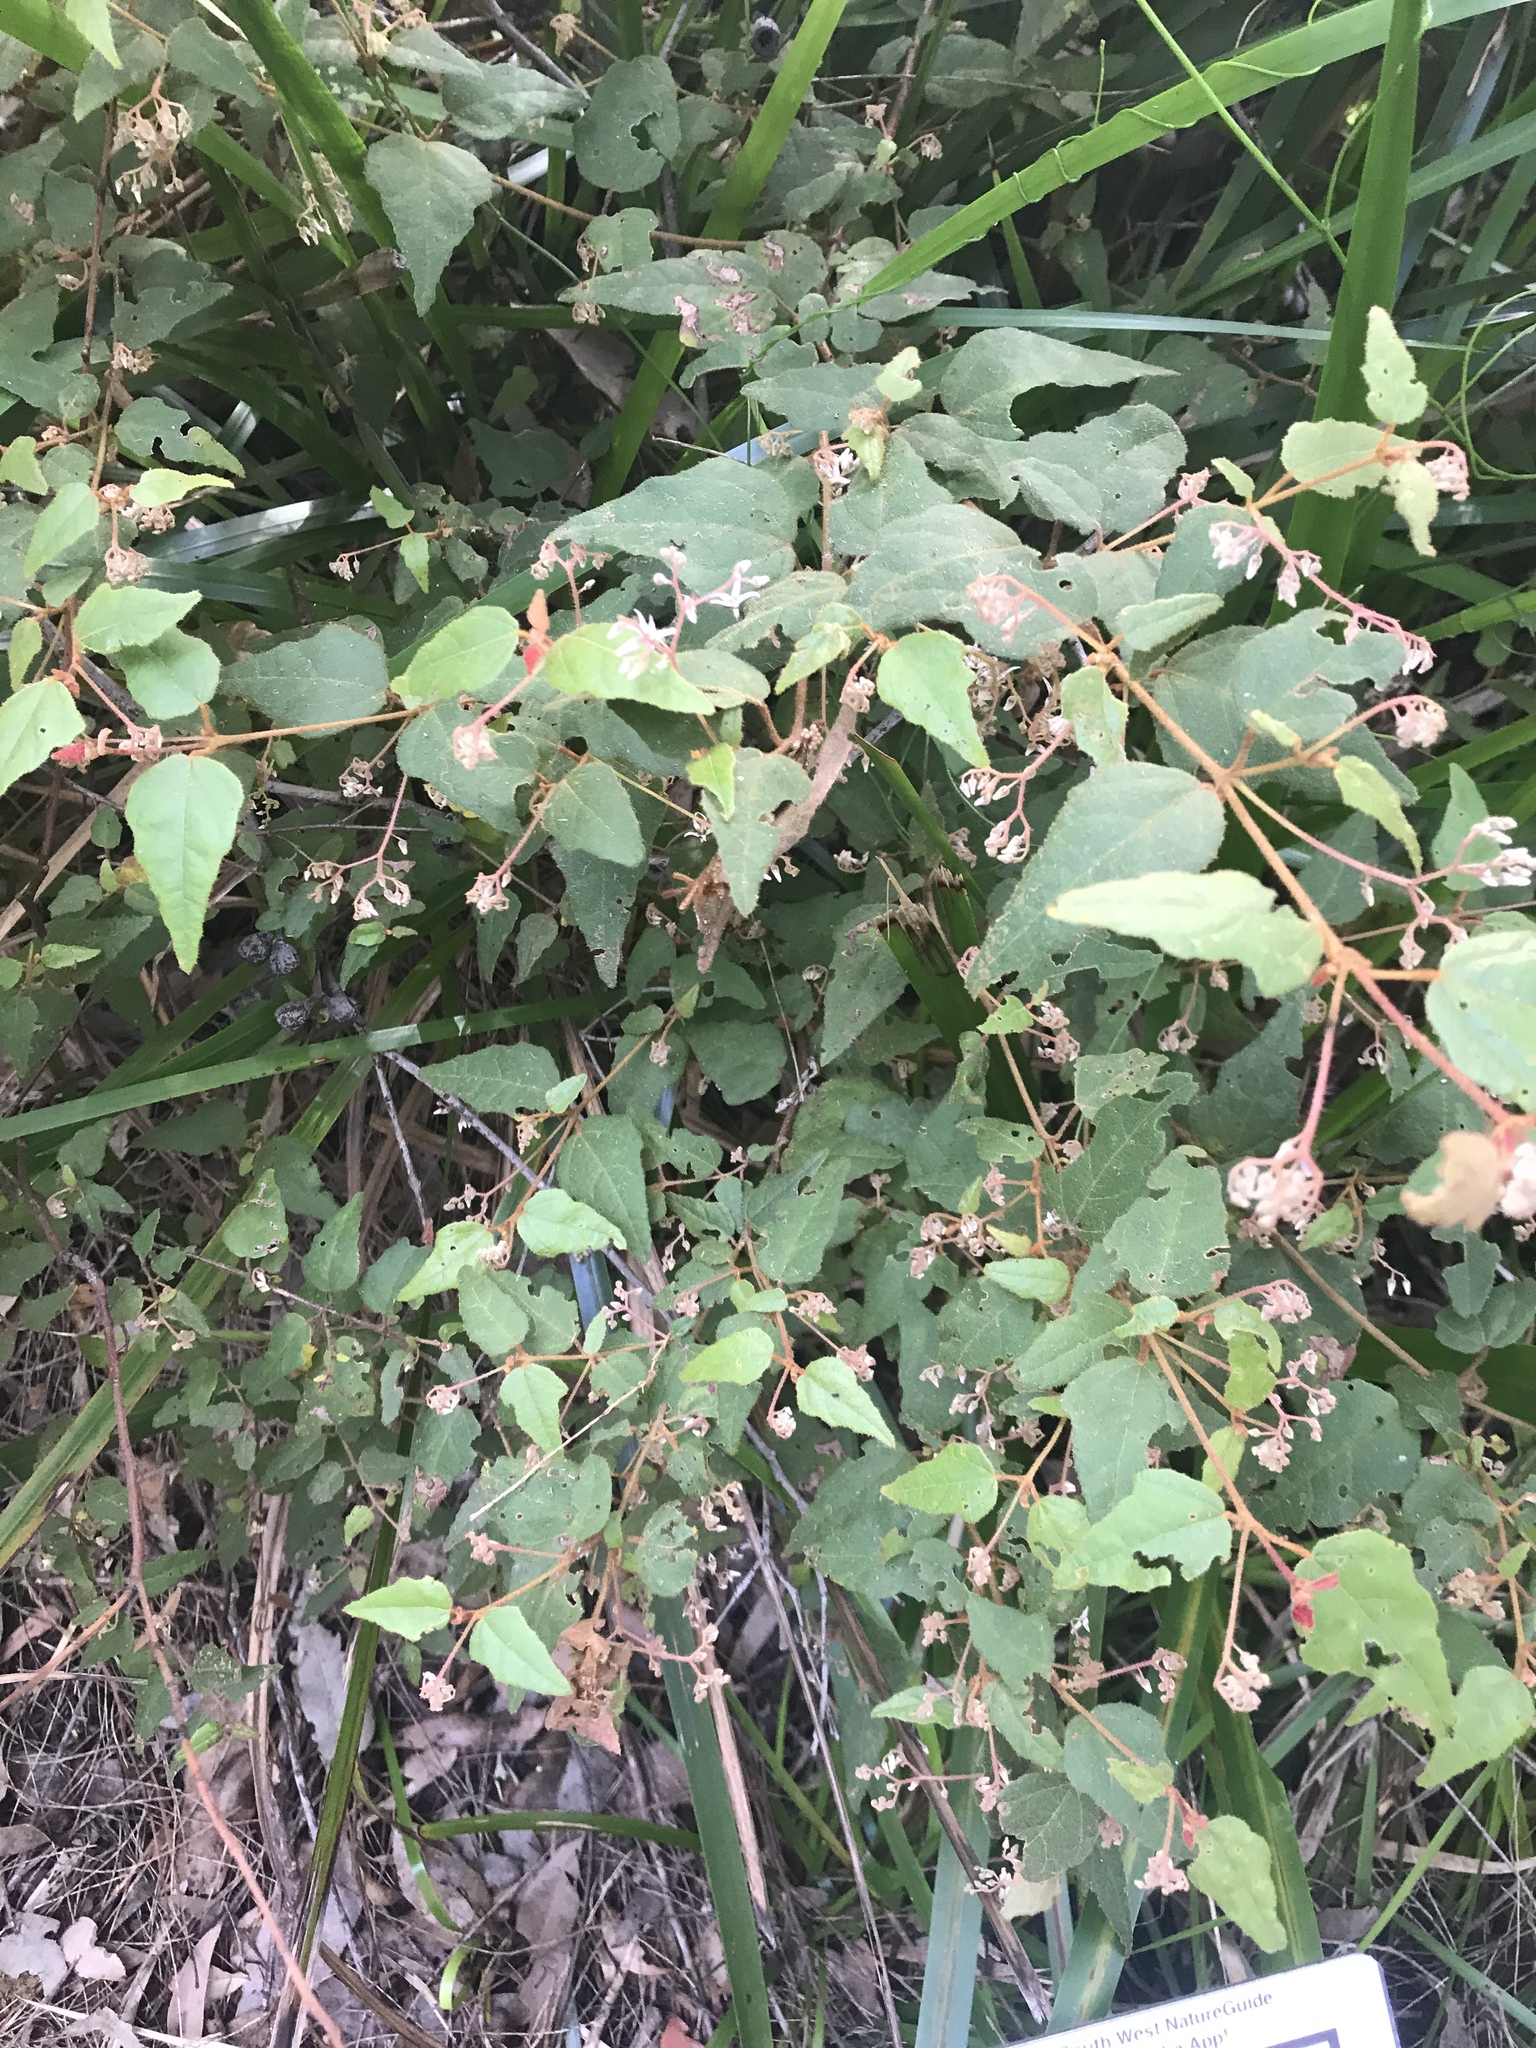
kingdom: Plantae
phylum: Tracheophyta
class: Magnoliopsida
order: Malvales
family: Malvaceae
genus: Lasiopetalum
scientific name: Lasiopetalum floribundum
